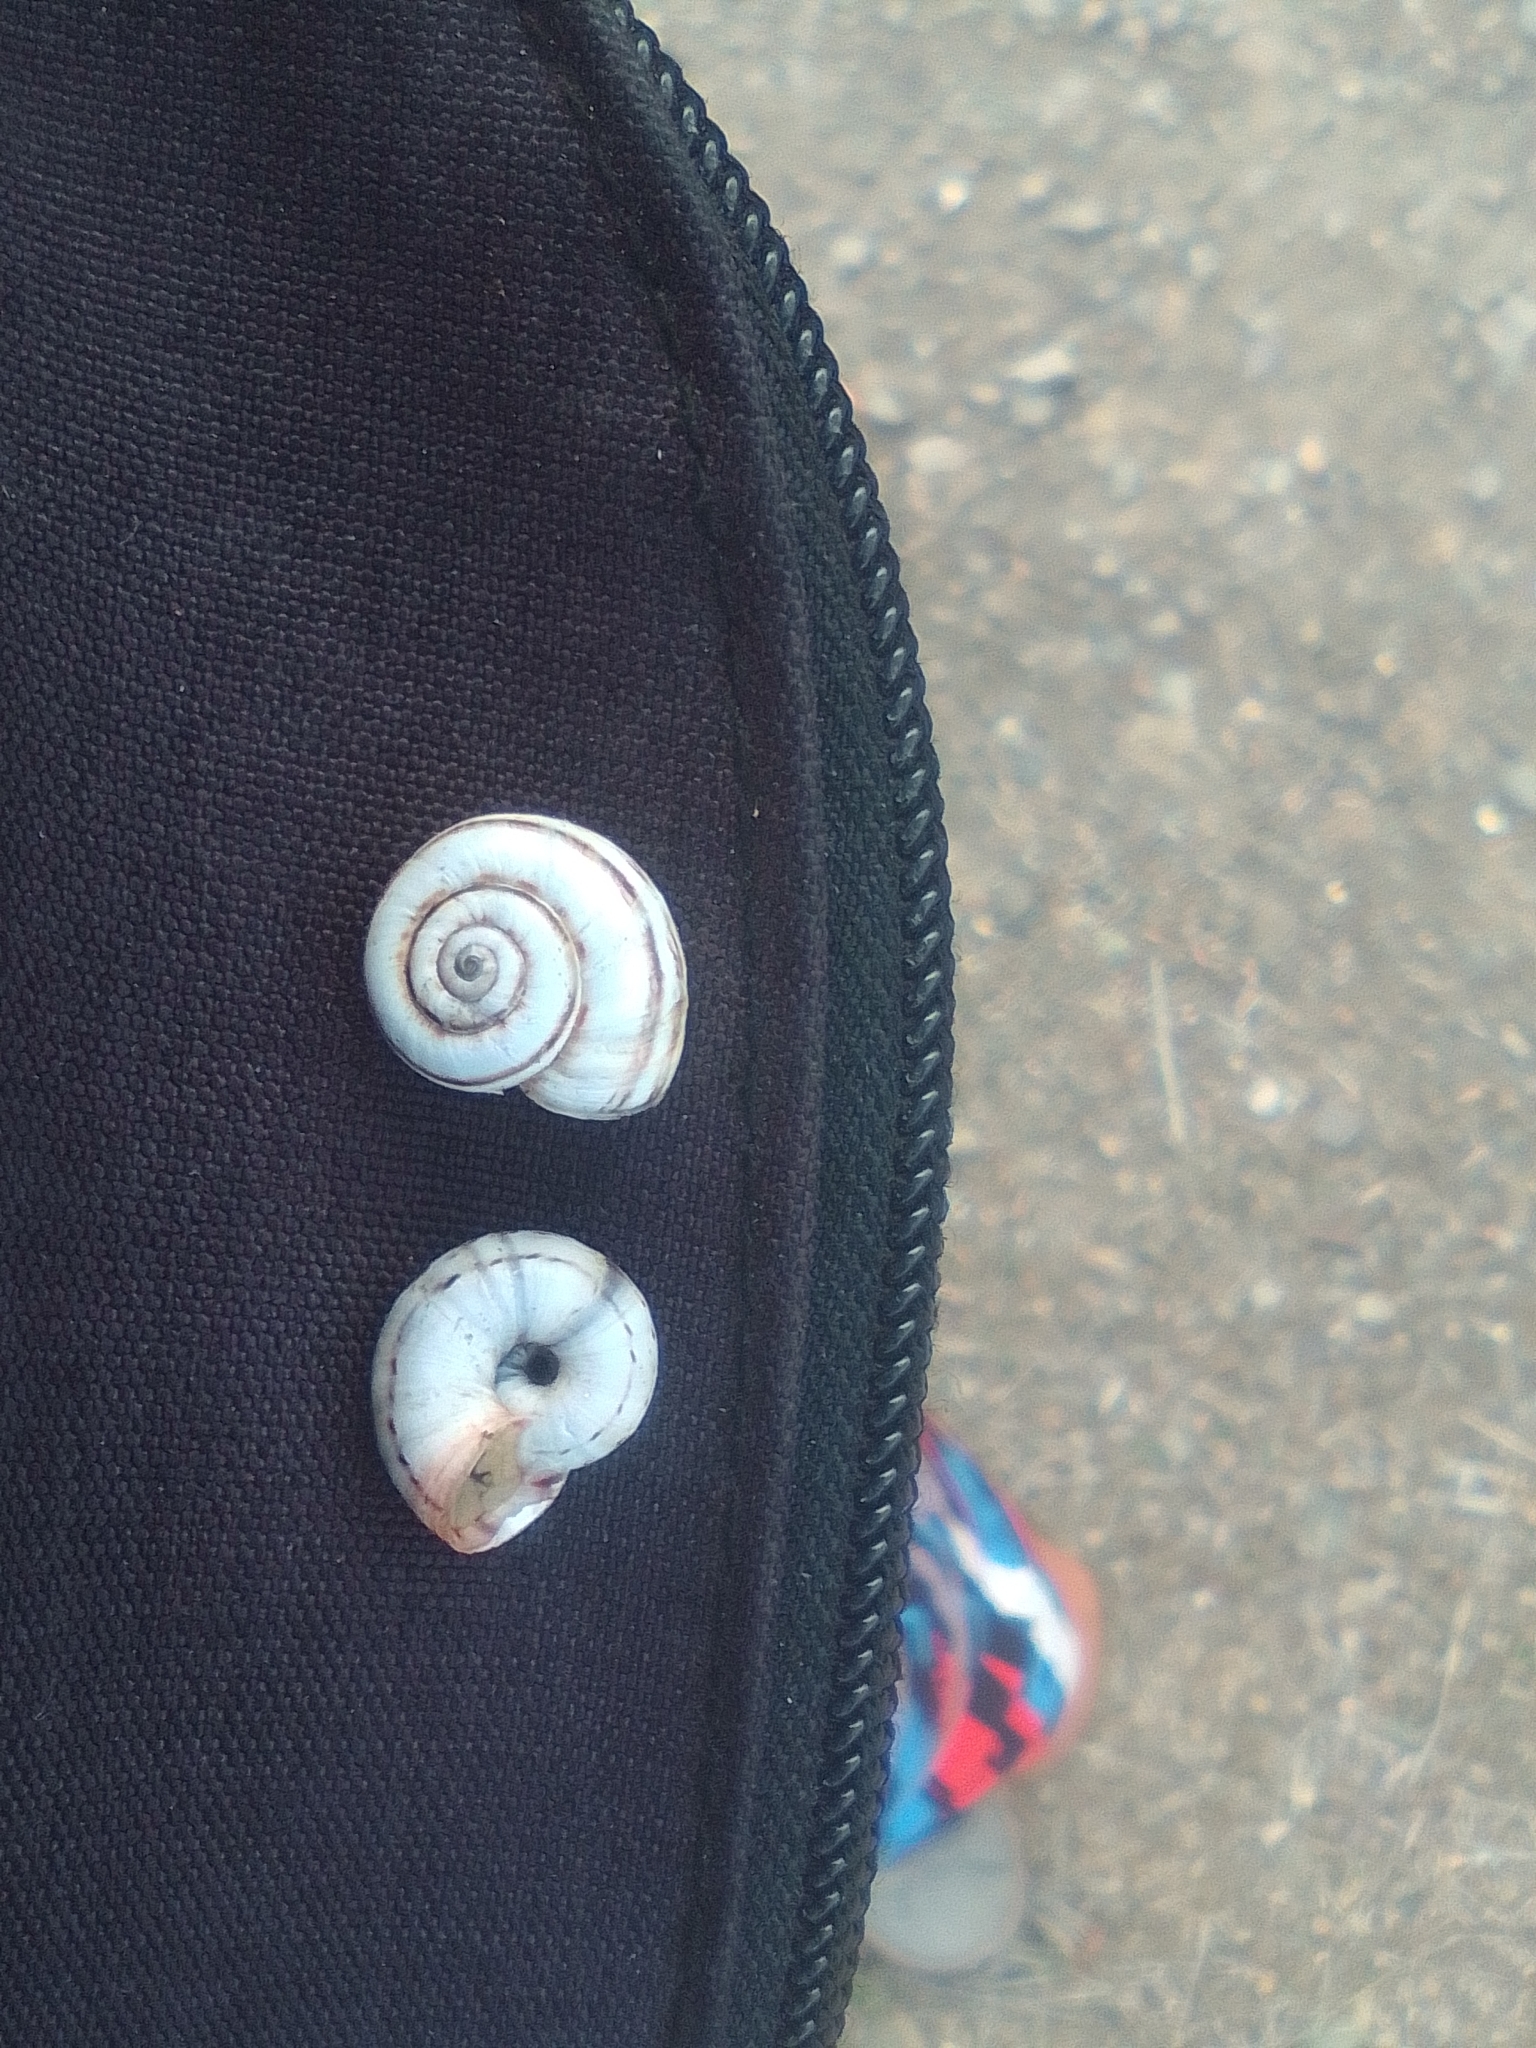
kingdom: Animalia
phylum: Mollusca
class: Gastropoda
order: Stylommatophora
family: Geomitridae
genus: Xeropicta
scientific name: Xeropicta derbentina
